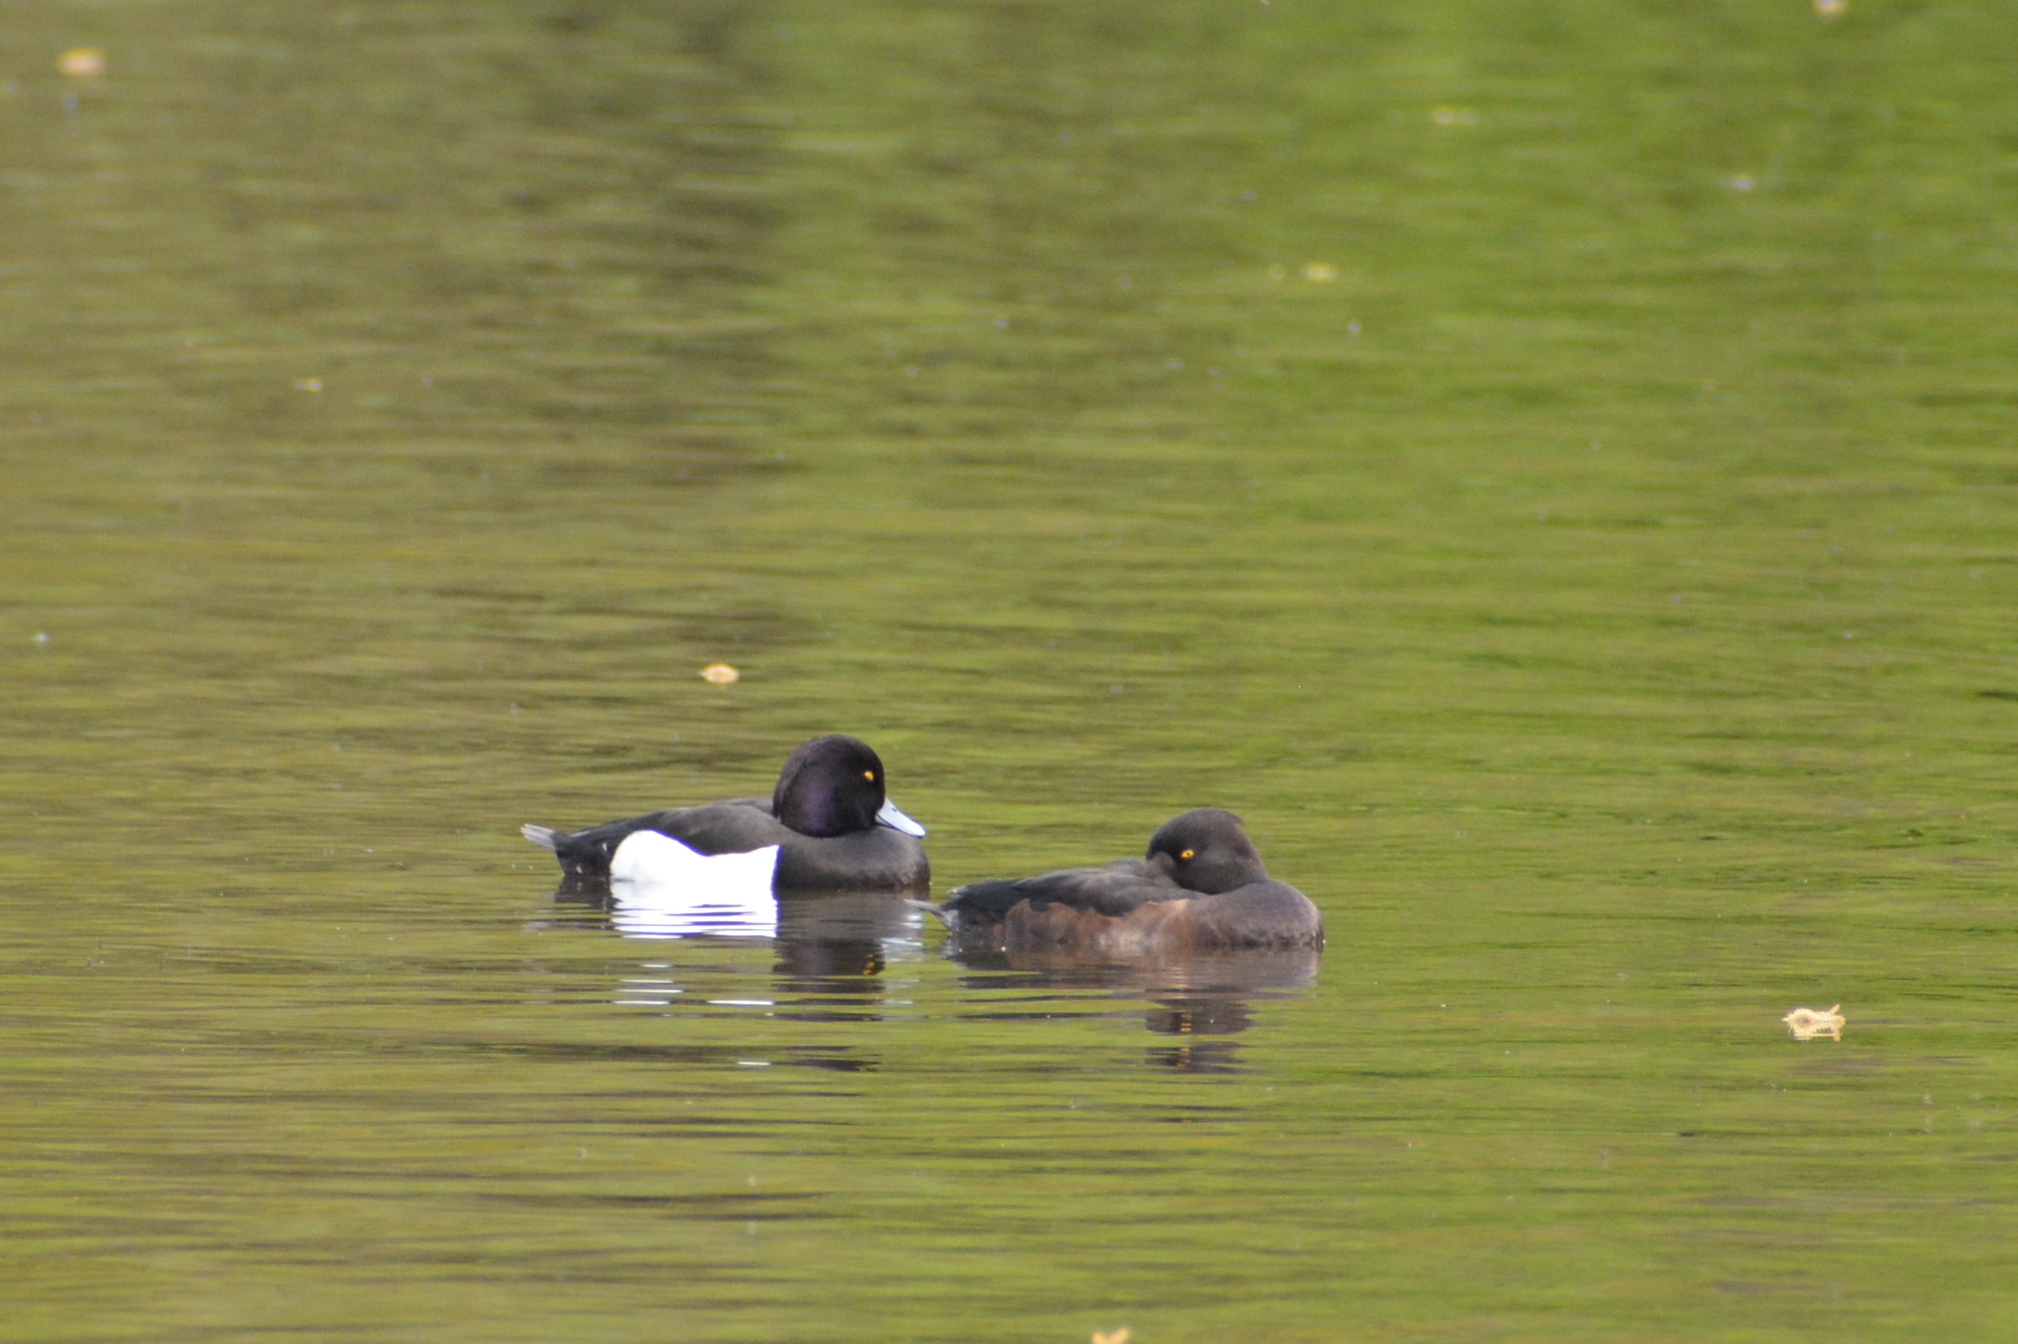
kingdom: Animalia
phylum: Chordata
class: Aves
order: Anseriformes
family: Anatidae
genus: Aythya
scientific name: Aythya fuligula
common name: Tufted duck
